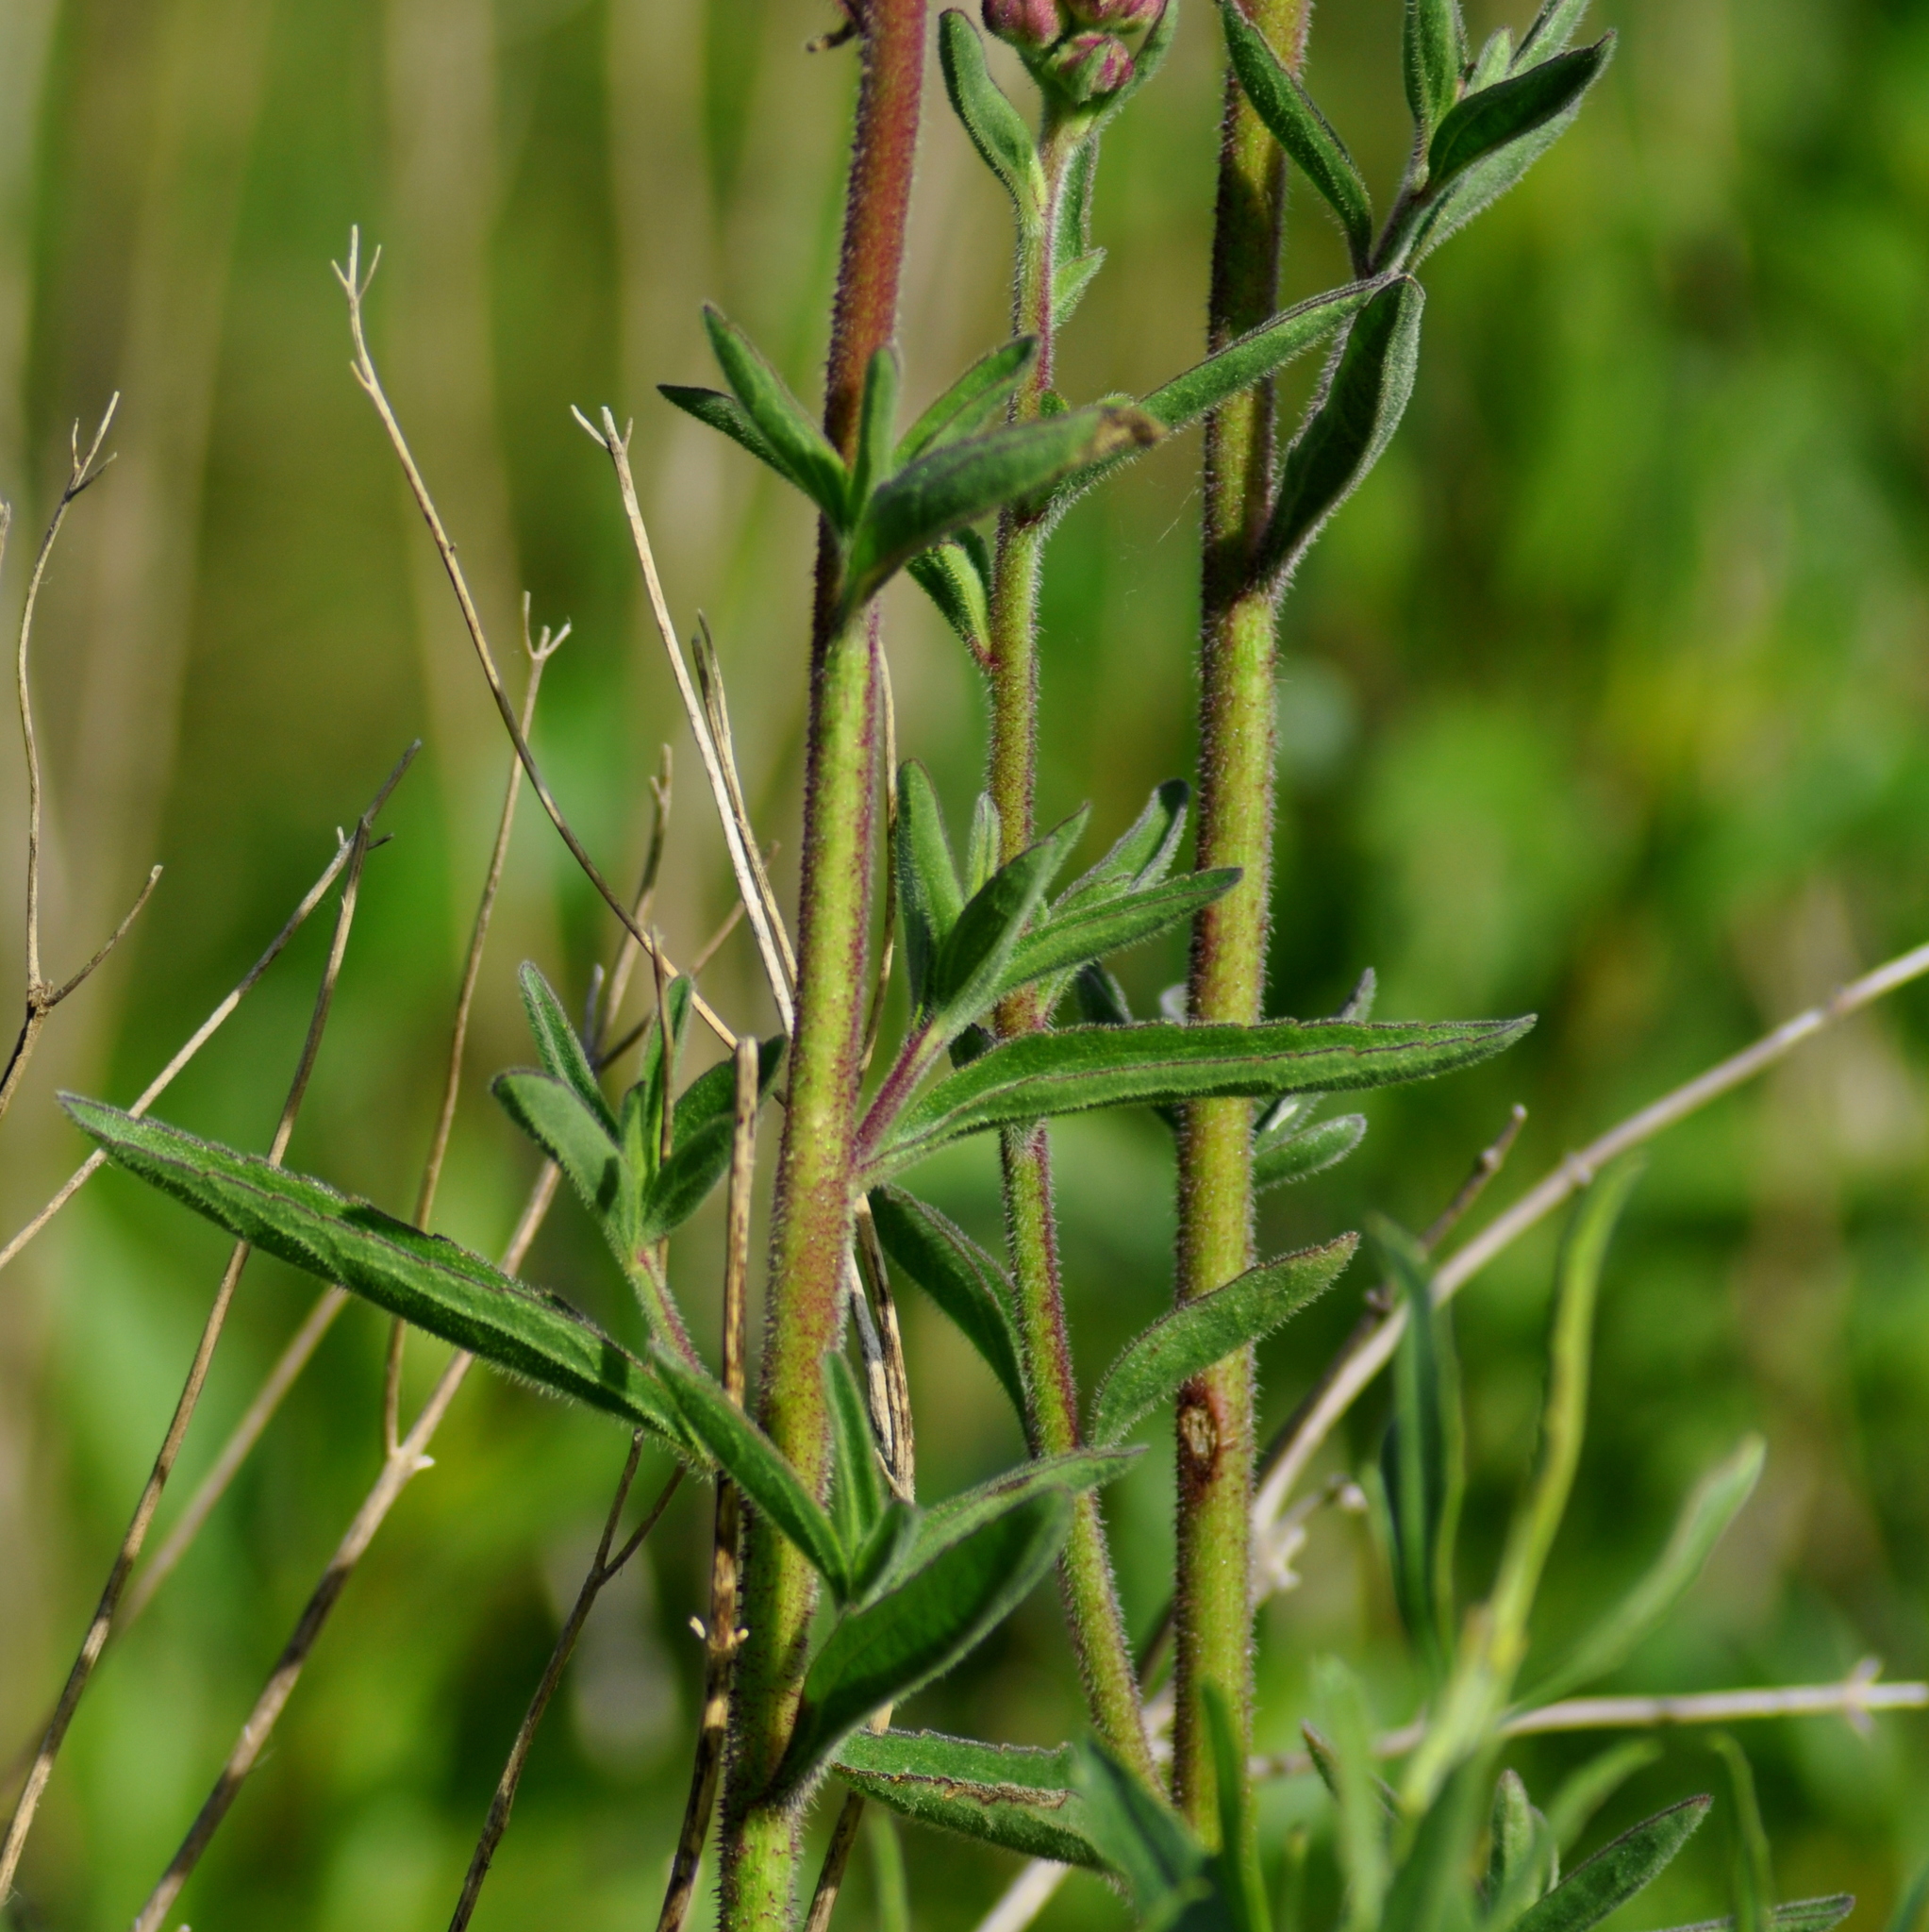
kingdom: Plantae
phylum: Tracheophyta
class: Magnoliopsida
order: Asterales
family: Asteraceae
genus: Campuloclinium
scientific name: Campuloclinium macrocephalum
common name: Pompomweed
